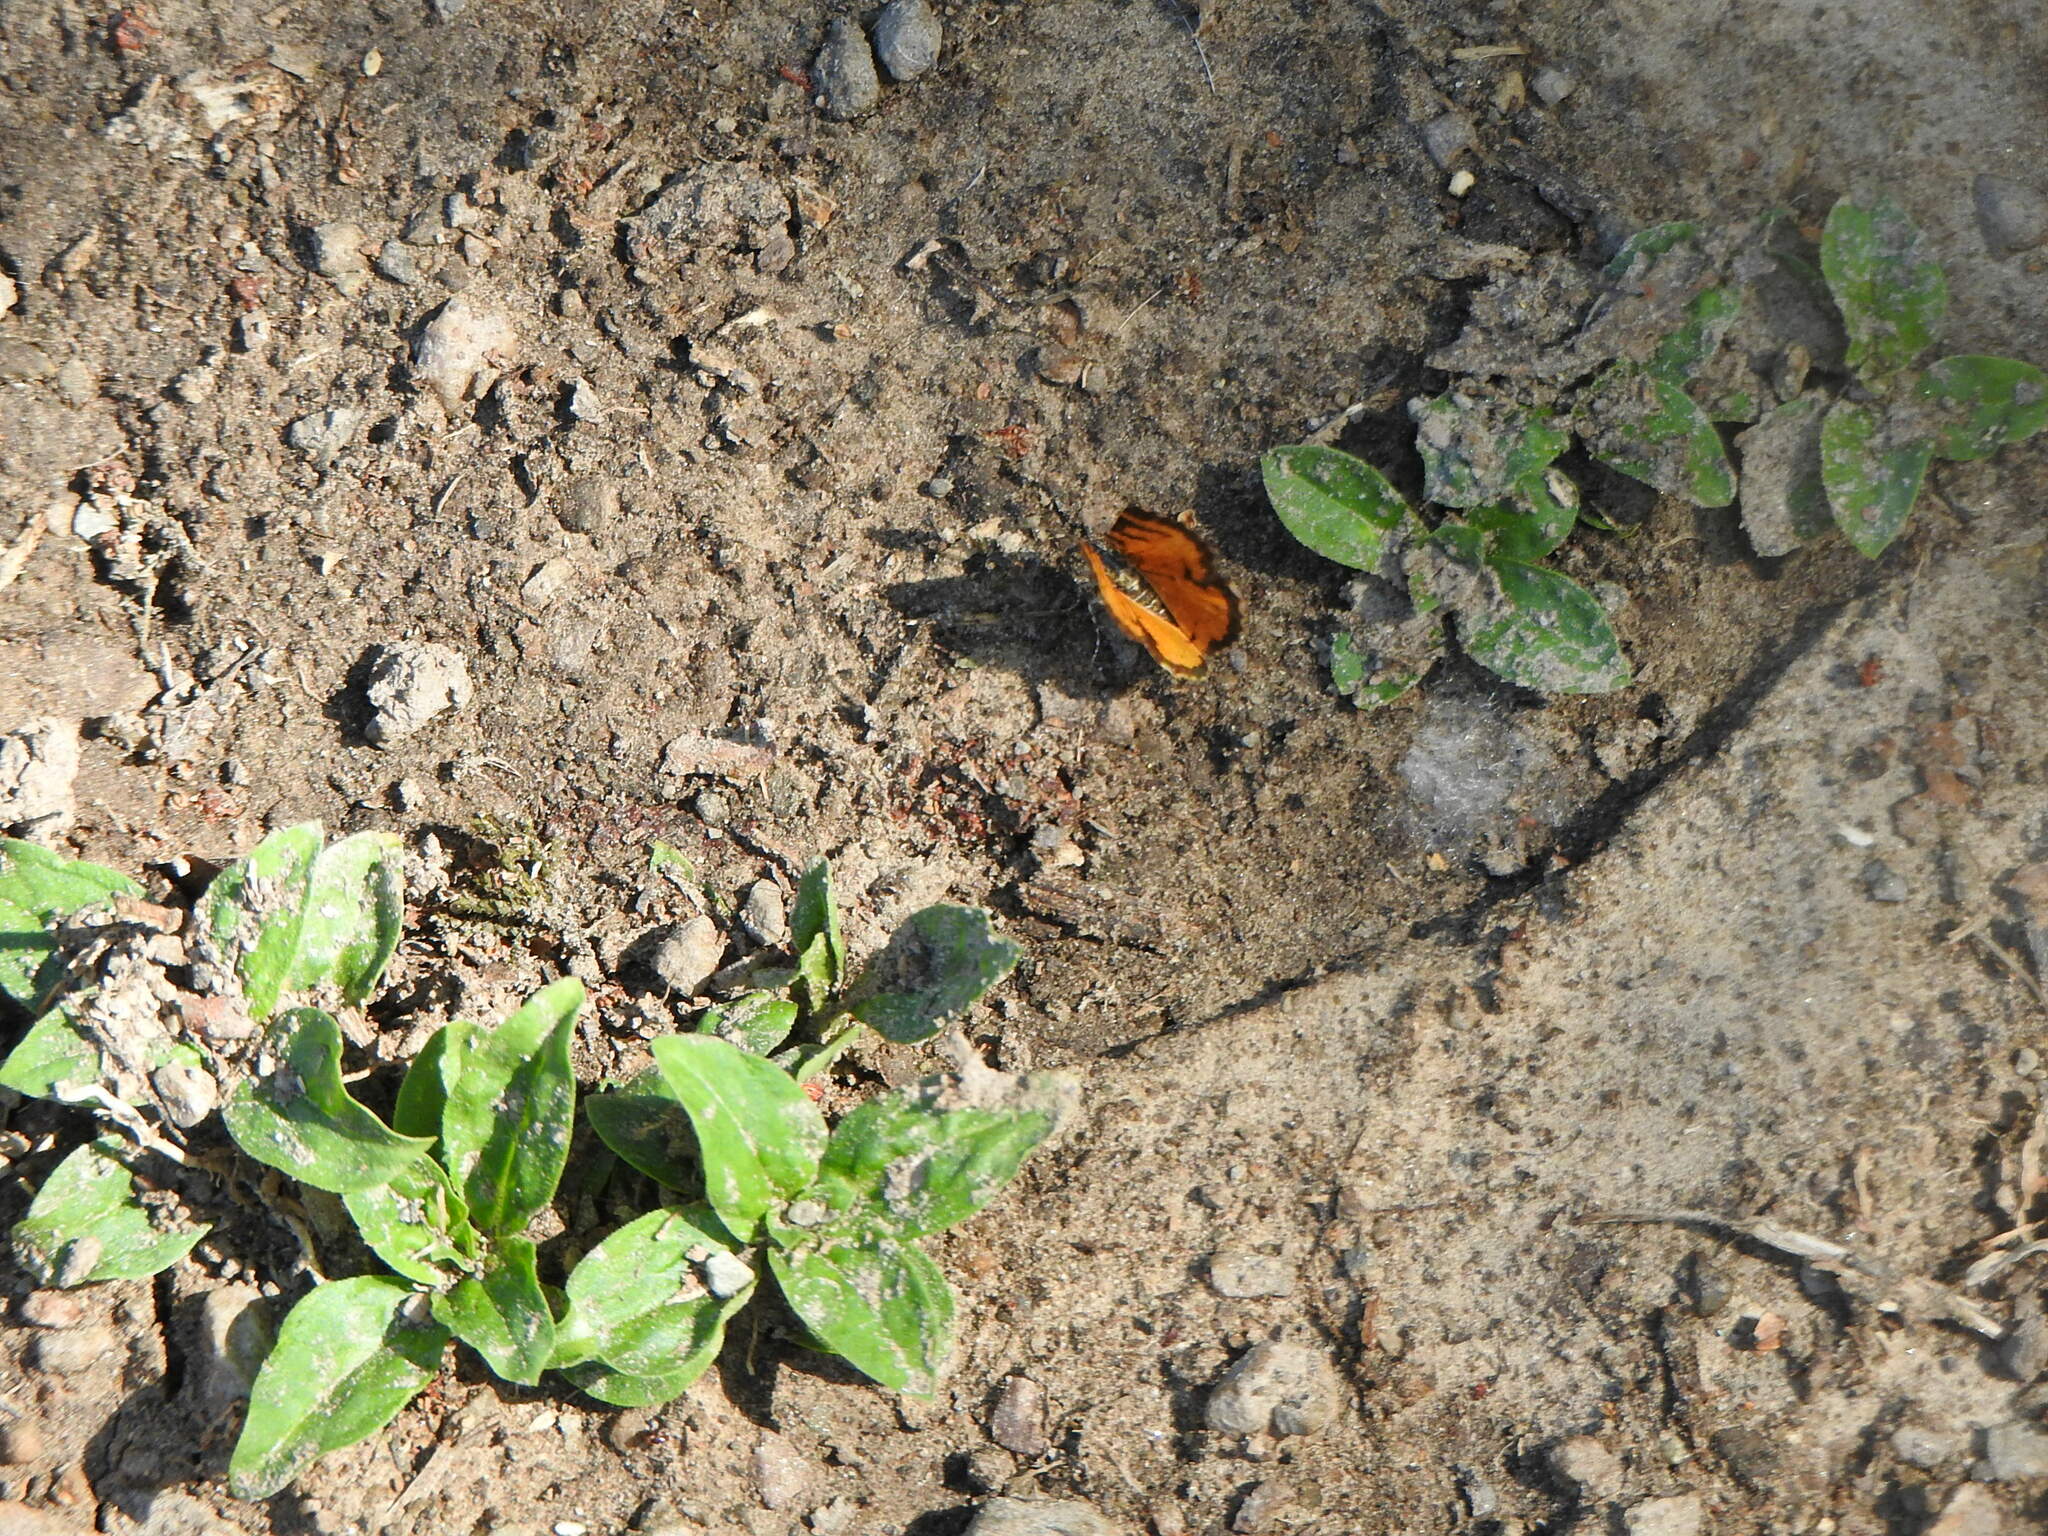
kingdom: Animalia
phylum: Arthropoda
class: Insecta
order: Lepidoptera
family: Geometridae
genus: Heterusia
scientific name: Heterusia cruciata
